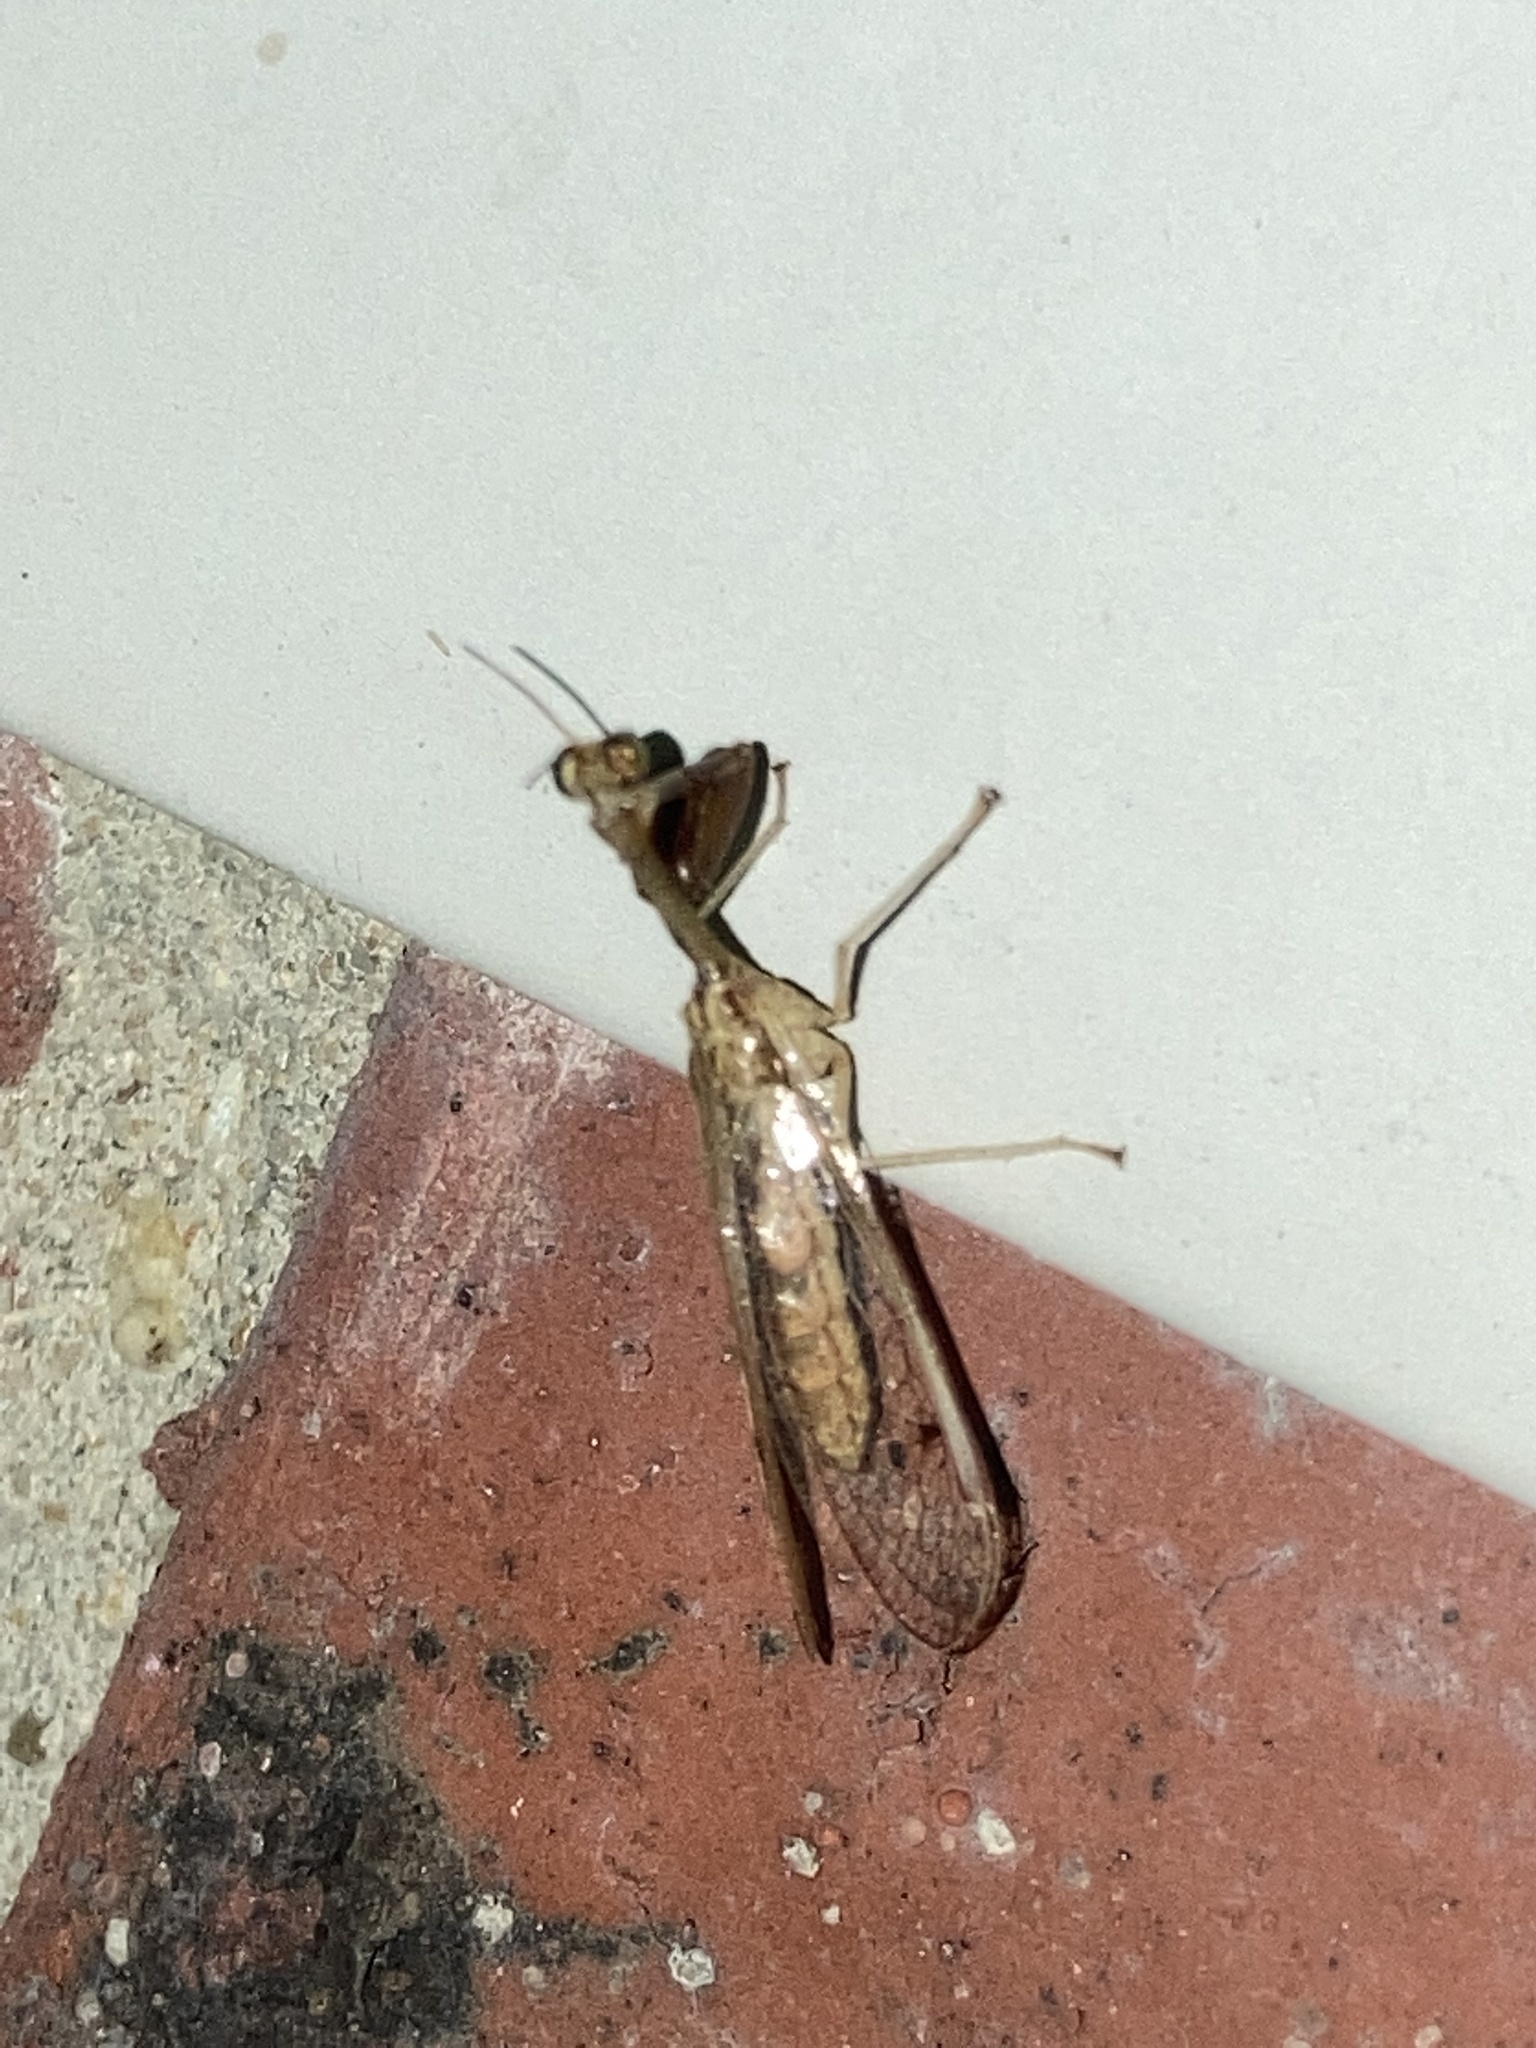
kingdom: Animalia
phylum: Arthropoda
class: Insecta
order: Neuroptera
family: Mantispidae
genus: Dicromantispa
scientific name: Dicromantispa interrupta
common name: Four-spotted mantidfly
